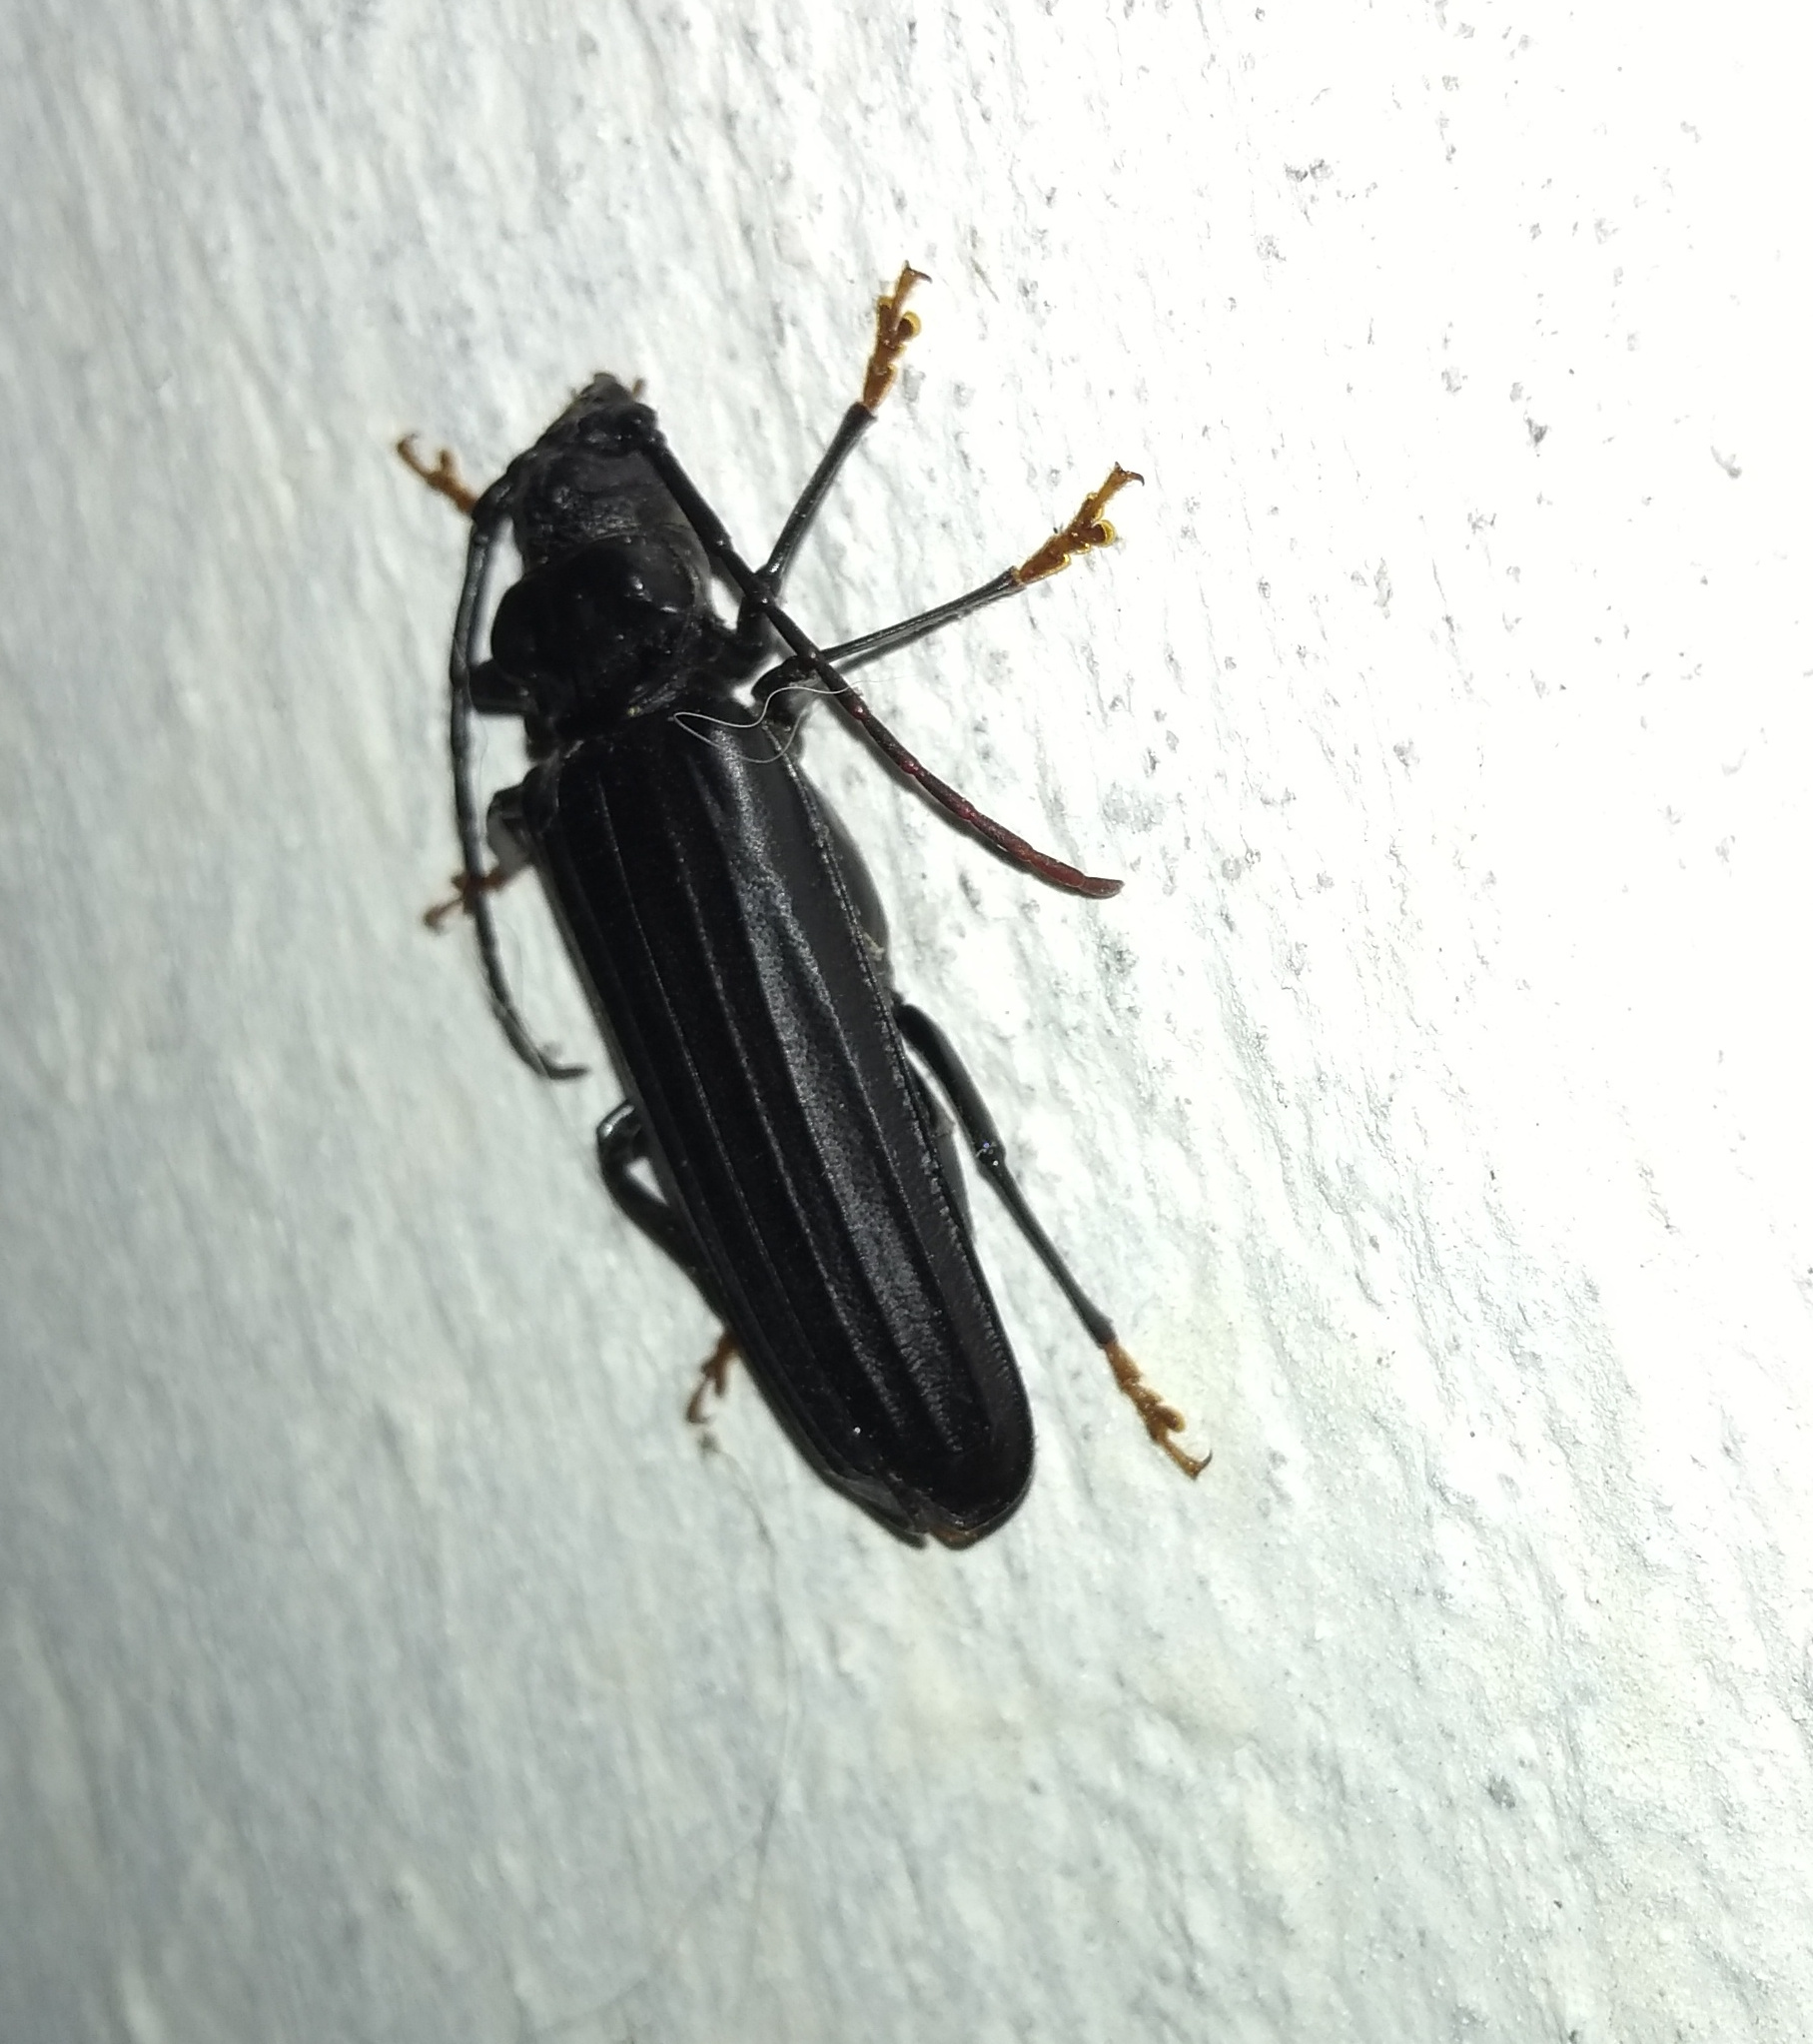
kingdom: Animalia
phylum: Arthropoda
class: Insecta
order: Coleoptera
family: Cerambycidae
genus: Chorenta
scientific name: Chorenta reticulata
